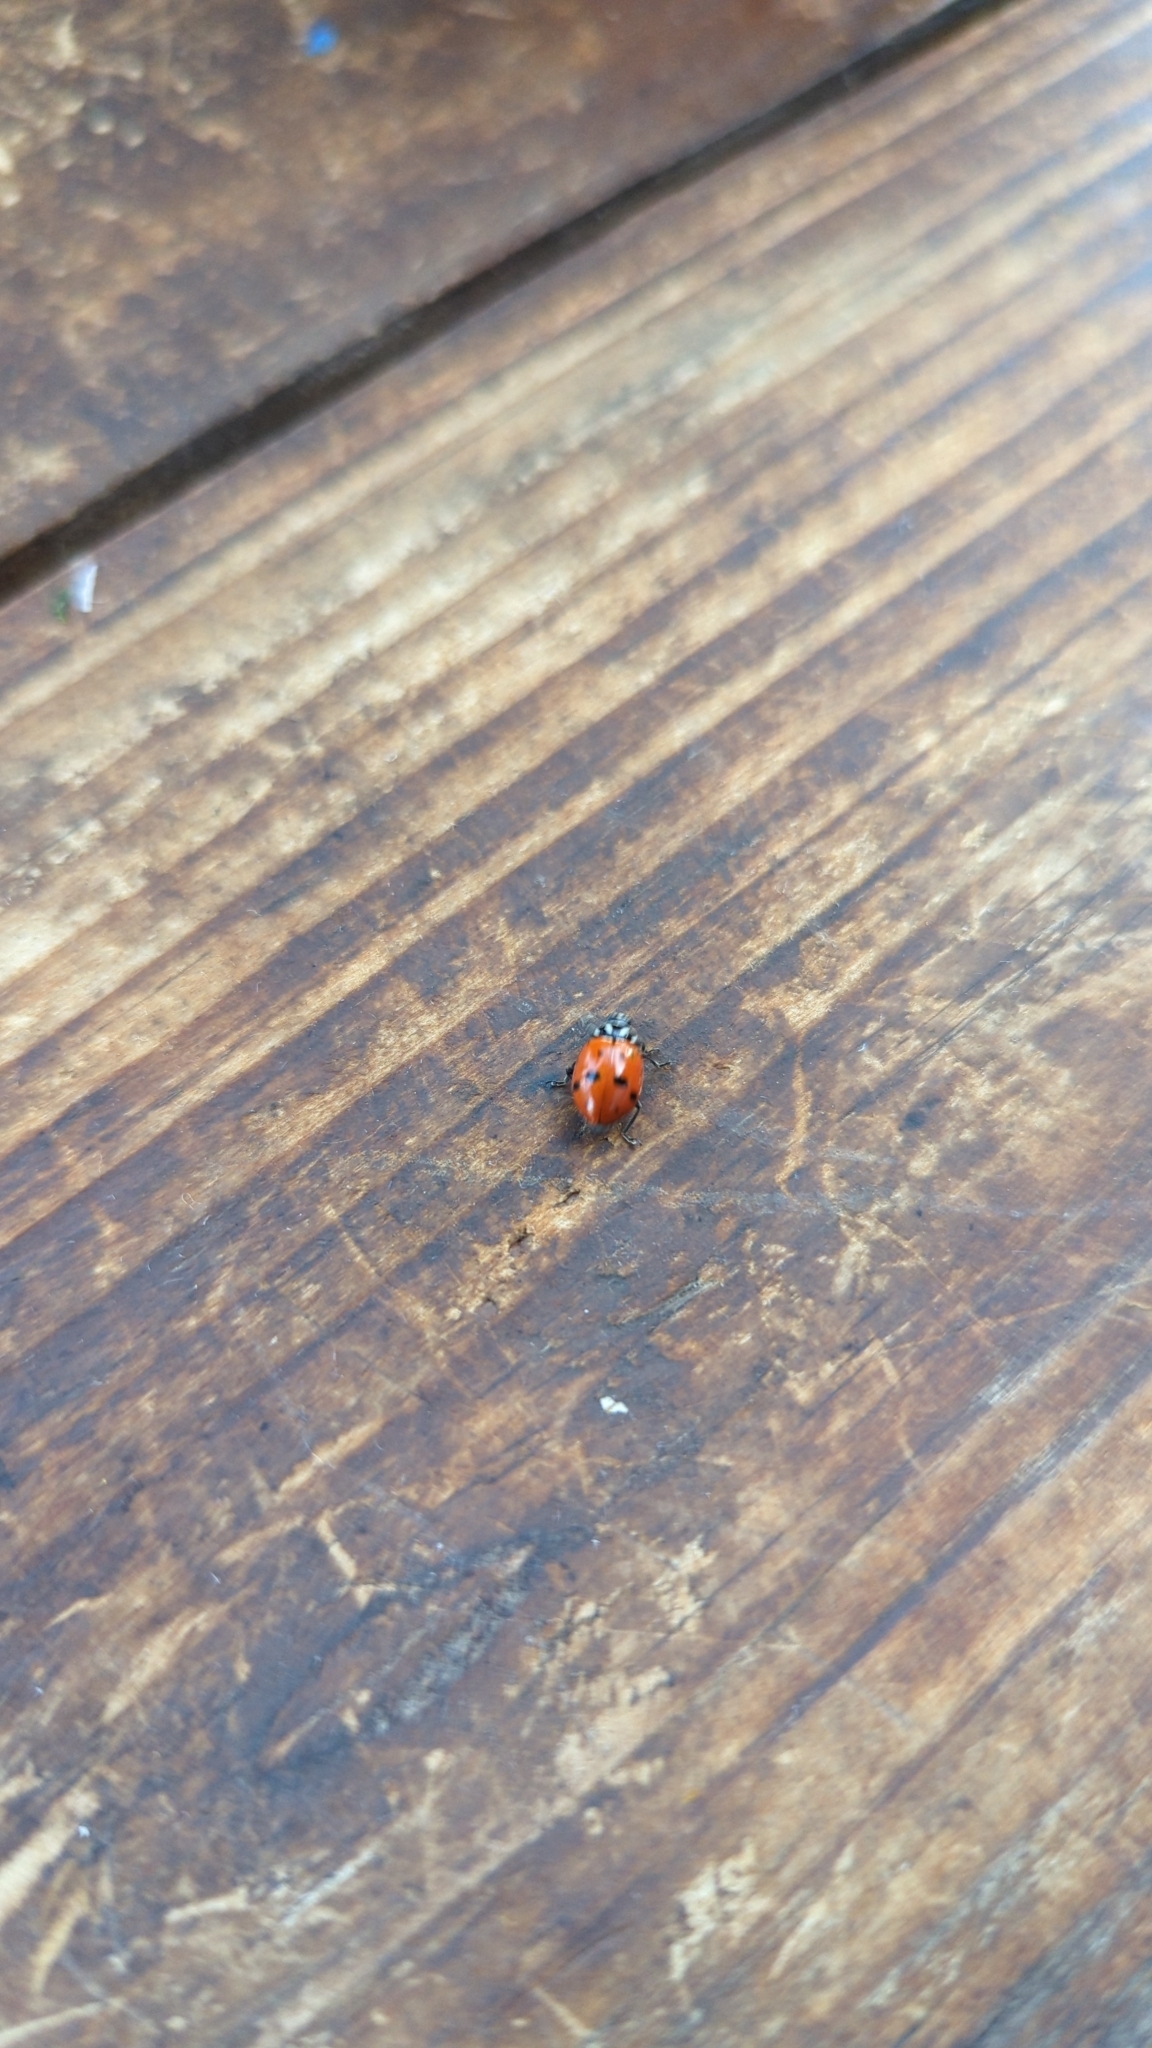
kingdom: Animalia
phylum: Arthropoda
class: Insecta
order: Coleoptera
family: Coccinellidae
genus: Hippodamia
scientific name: Hippodamia convergens
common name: Convergent lady beetle
